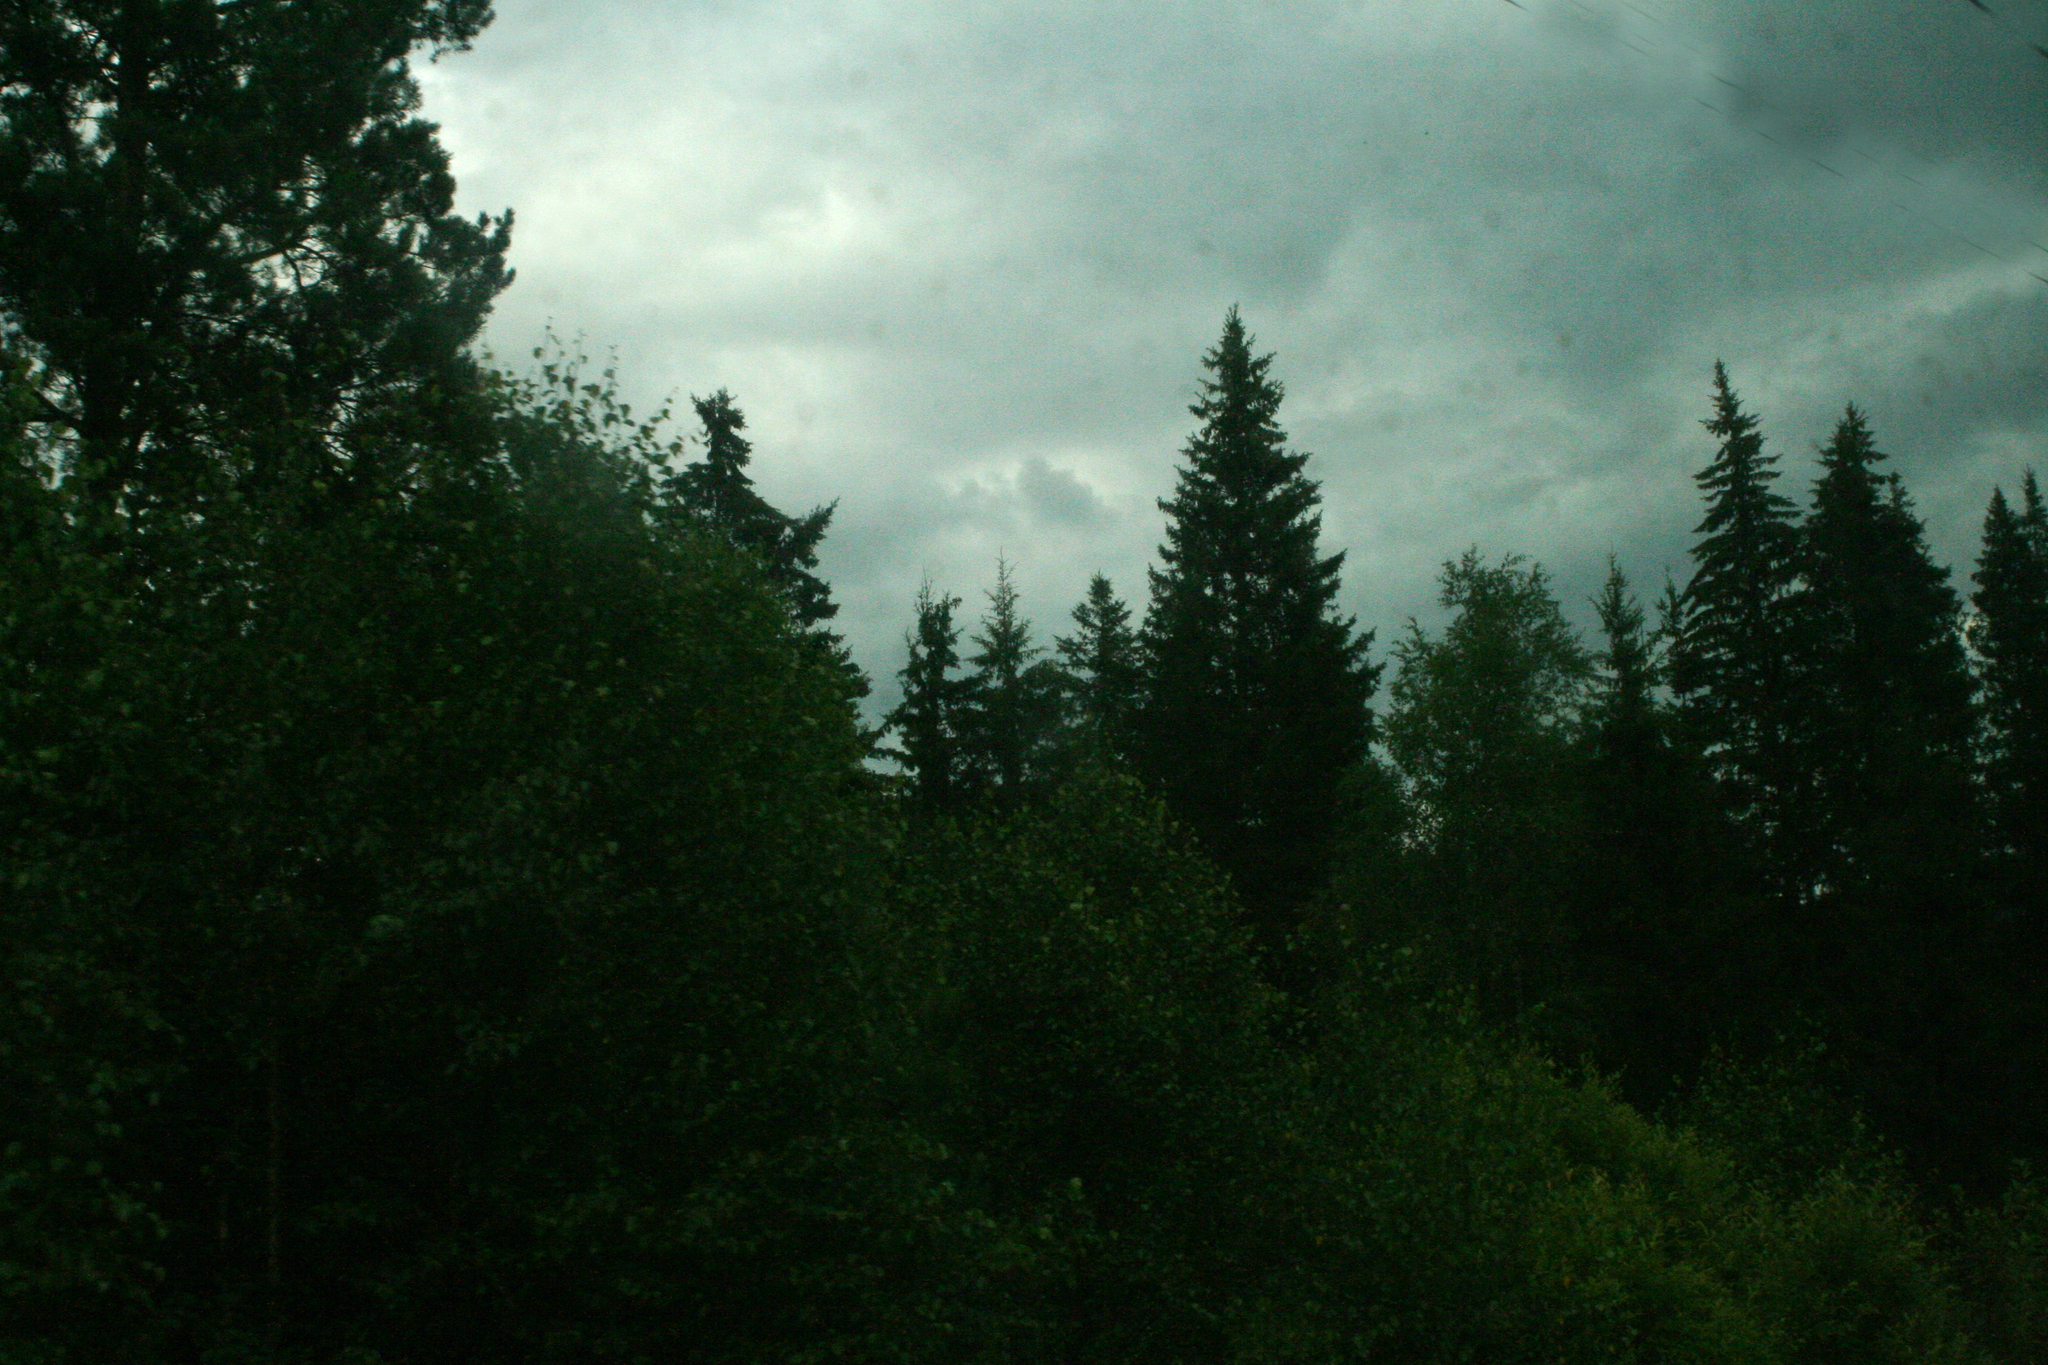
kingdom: Plantae
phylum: Tracheophyta
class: Pinopsida
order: Pinales
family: Pinaceae
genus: Picea
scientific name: Picea obovata
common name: Siberian spruce
